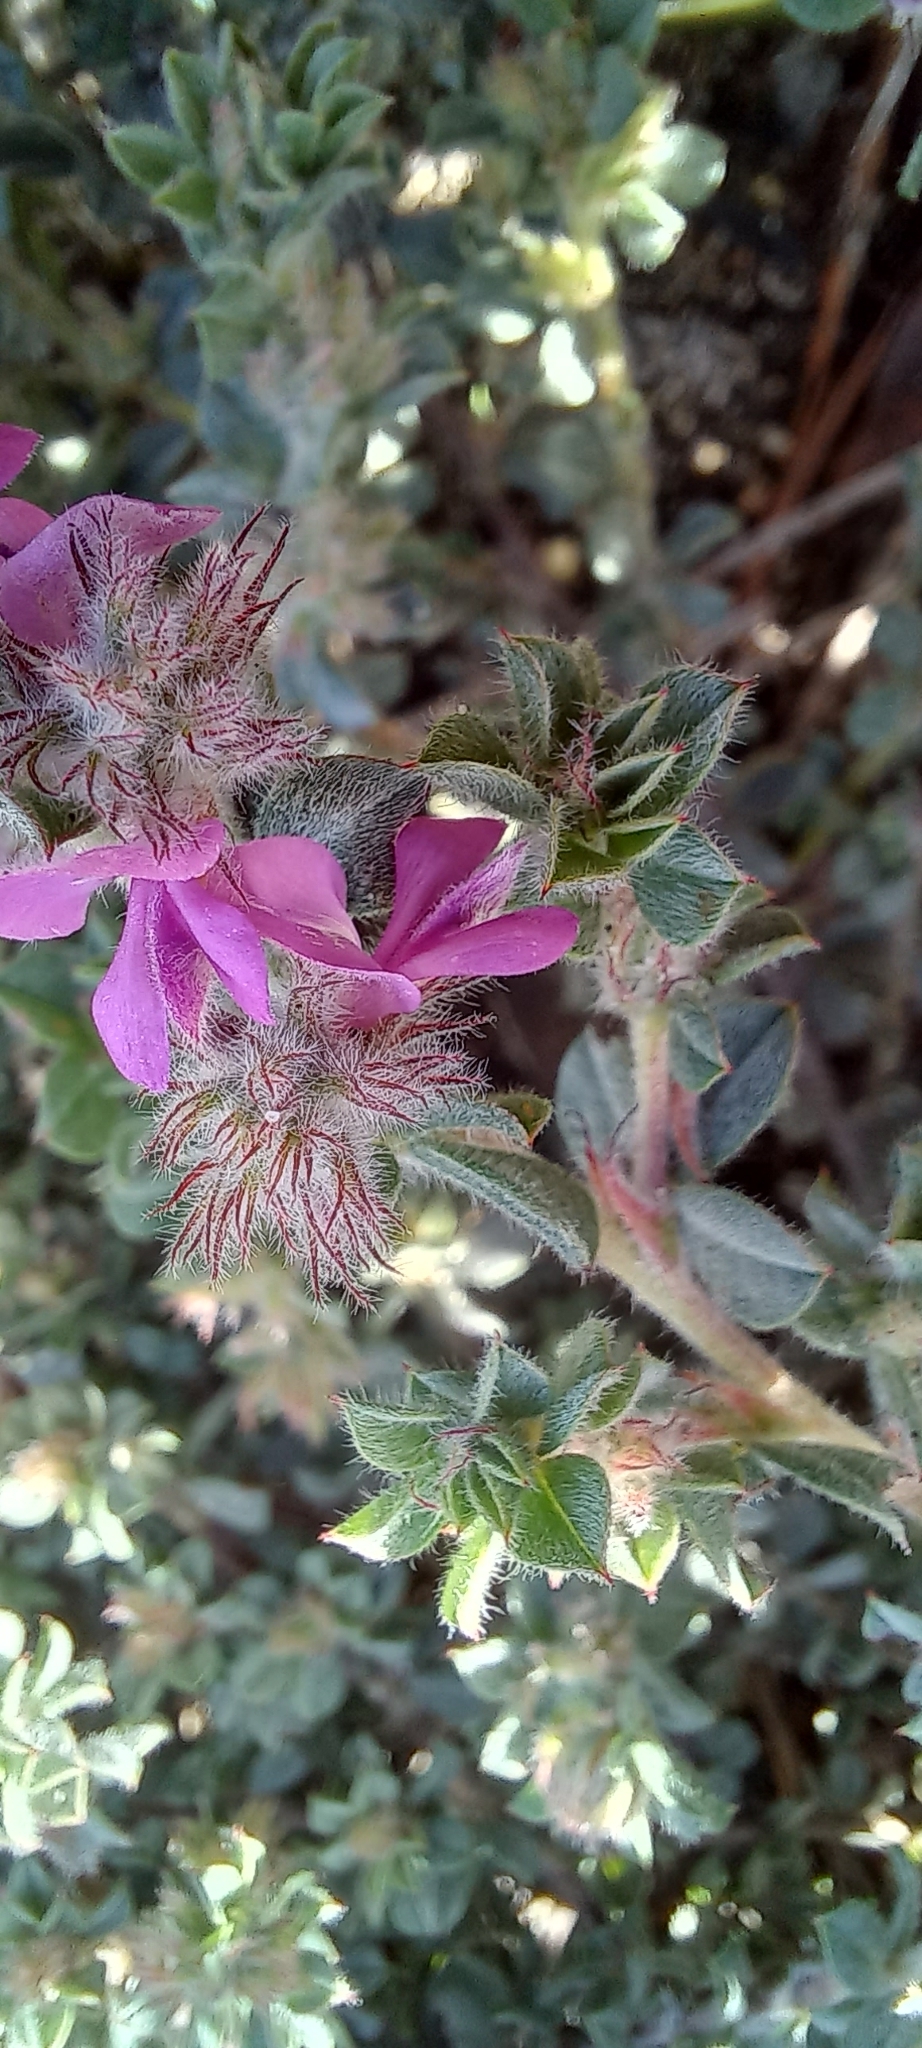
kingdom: Plantae
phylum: Tracheophyta
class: Magnoliopsida
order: Fabales
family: Fabaceae
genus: Indigofera
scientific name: Indigofera glomerata
